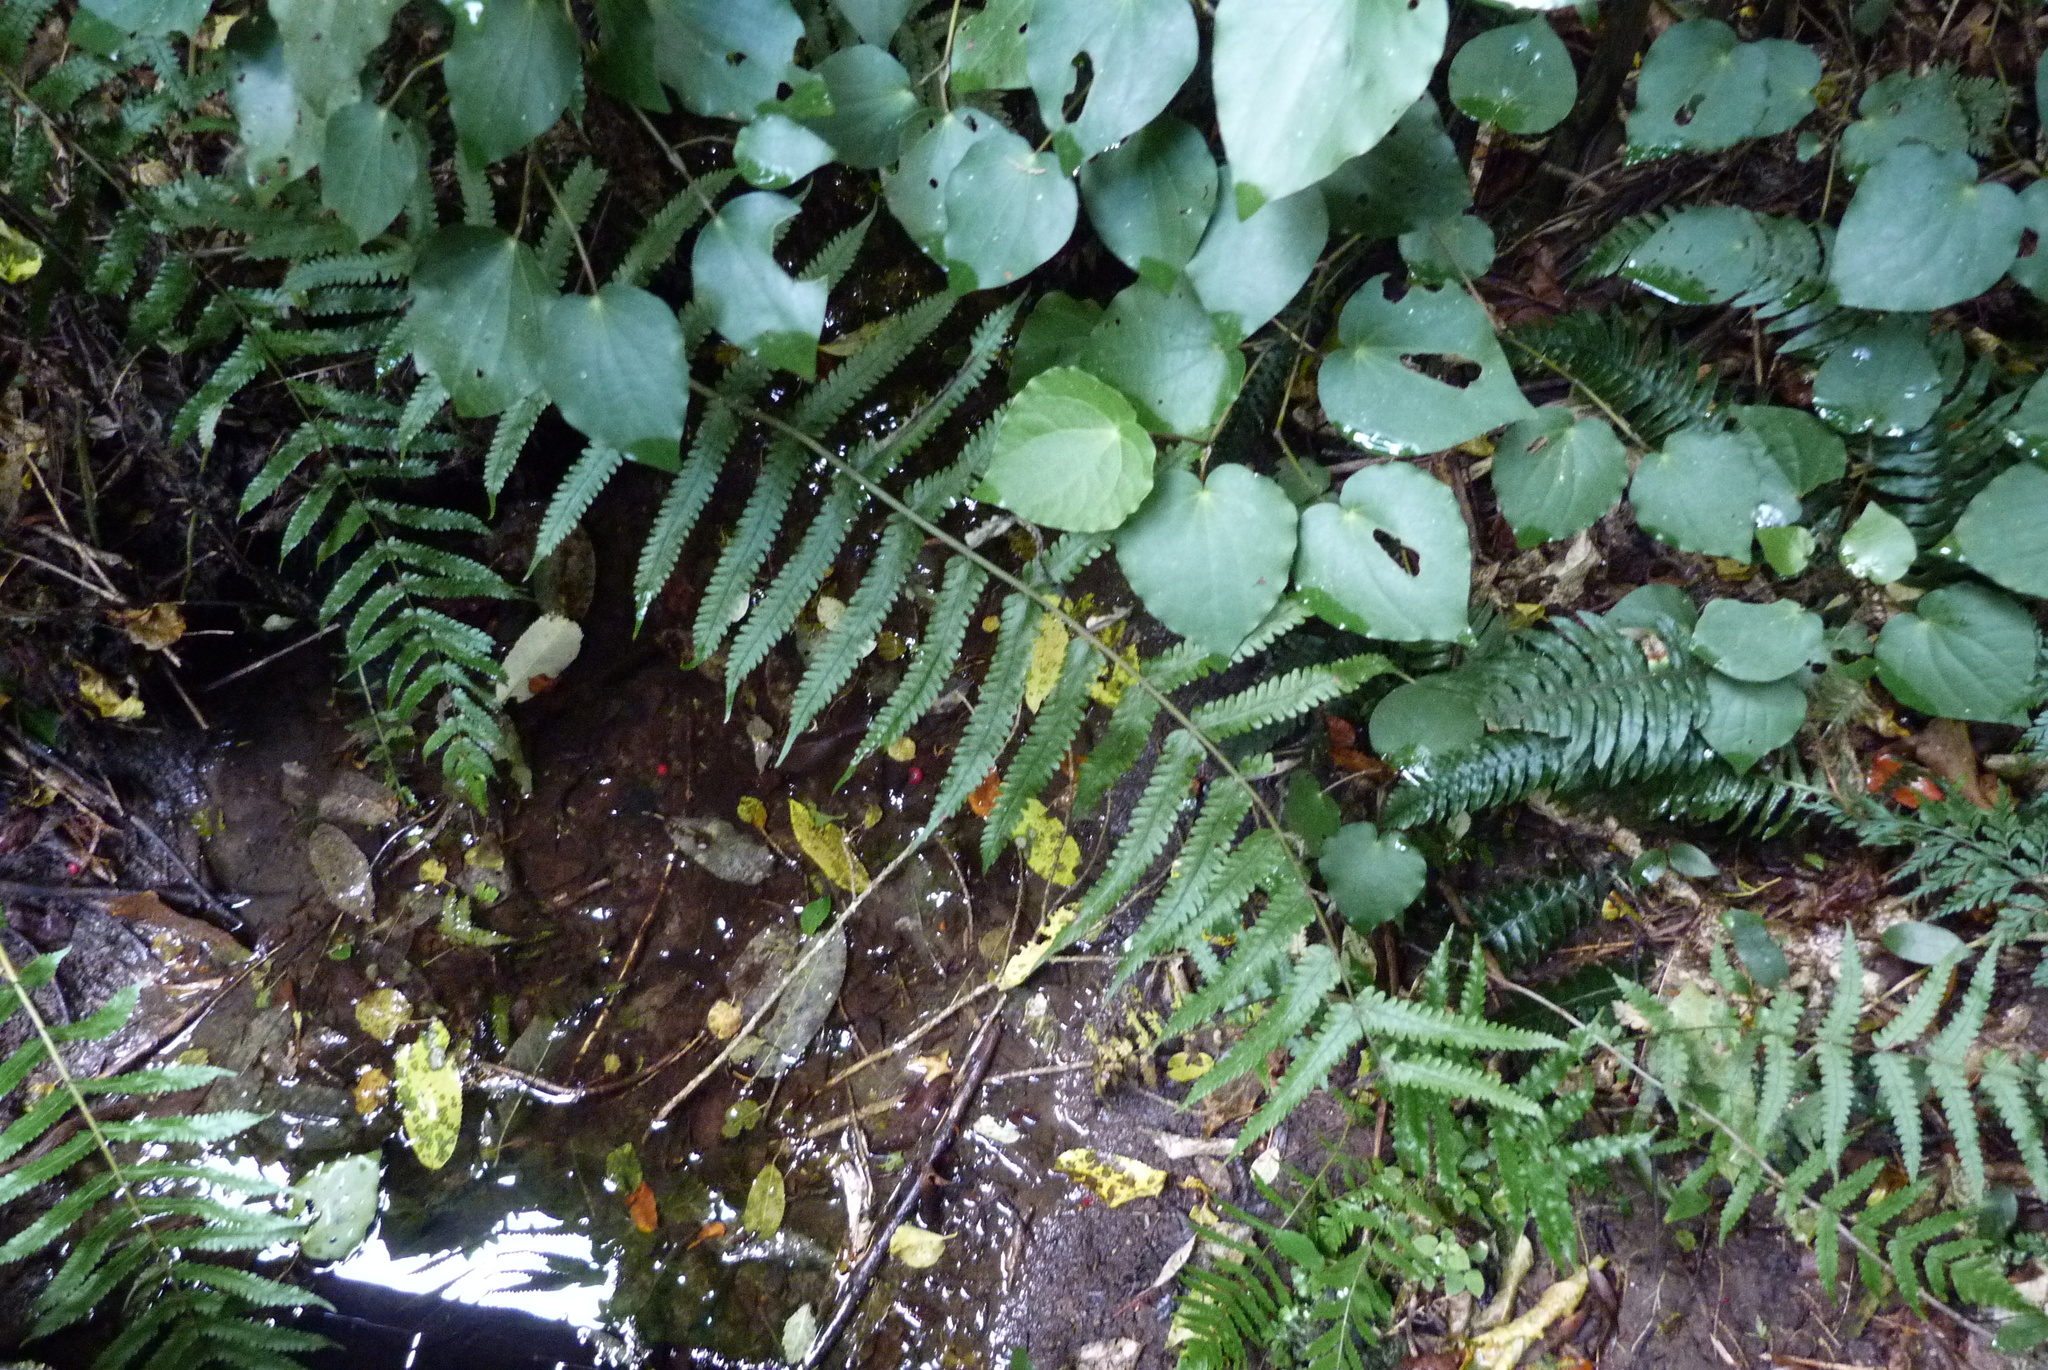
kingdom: Plantae
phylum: Tracheophyta
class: Polypodiopsida
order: Polypodiales
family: Thelypteridaceae
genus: Pakau
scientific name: Pakau pennigera
